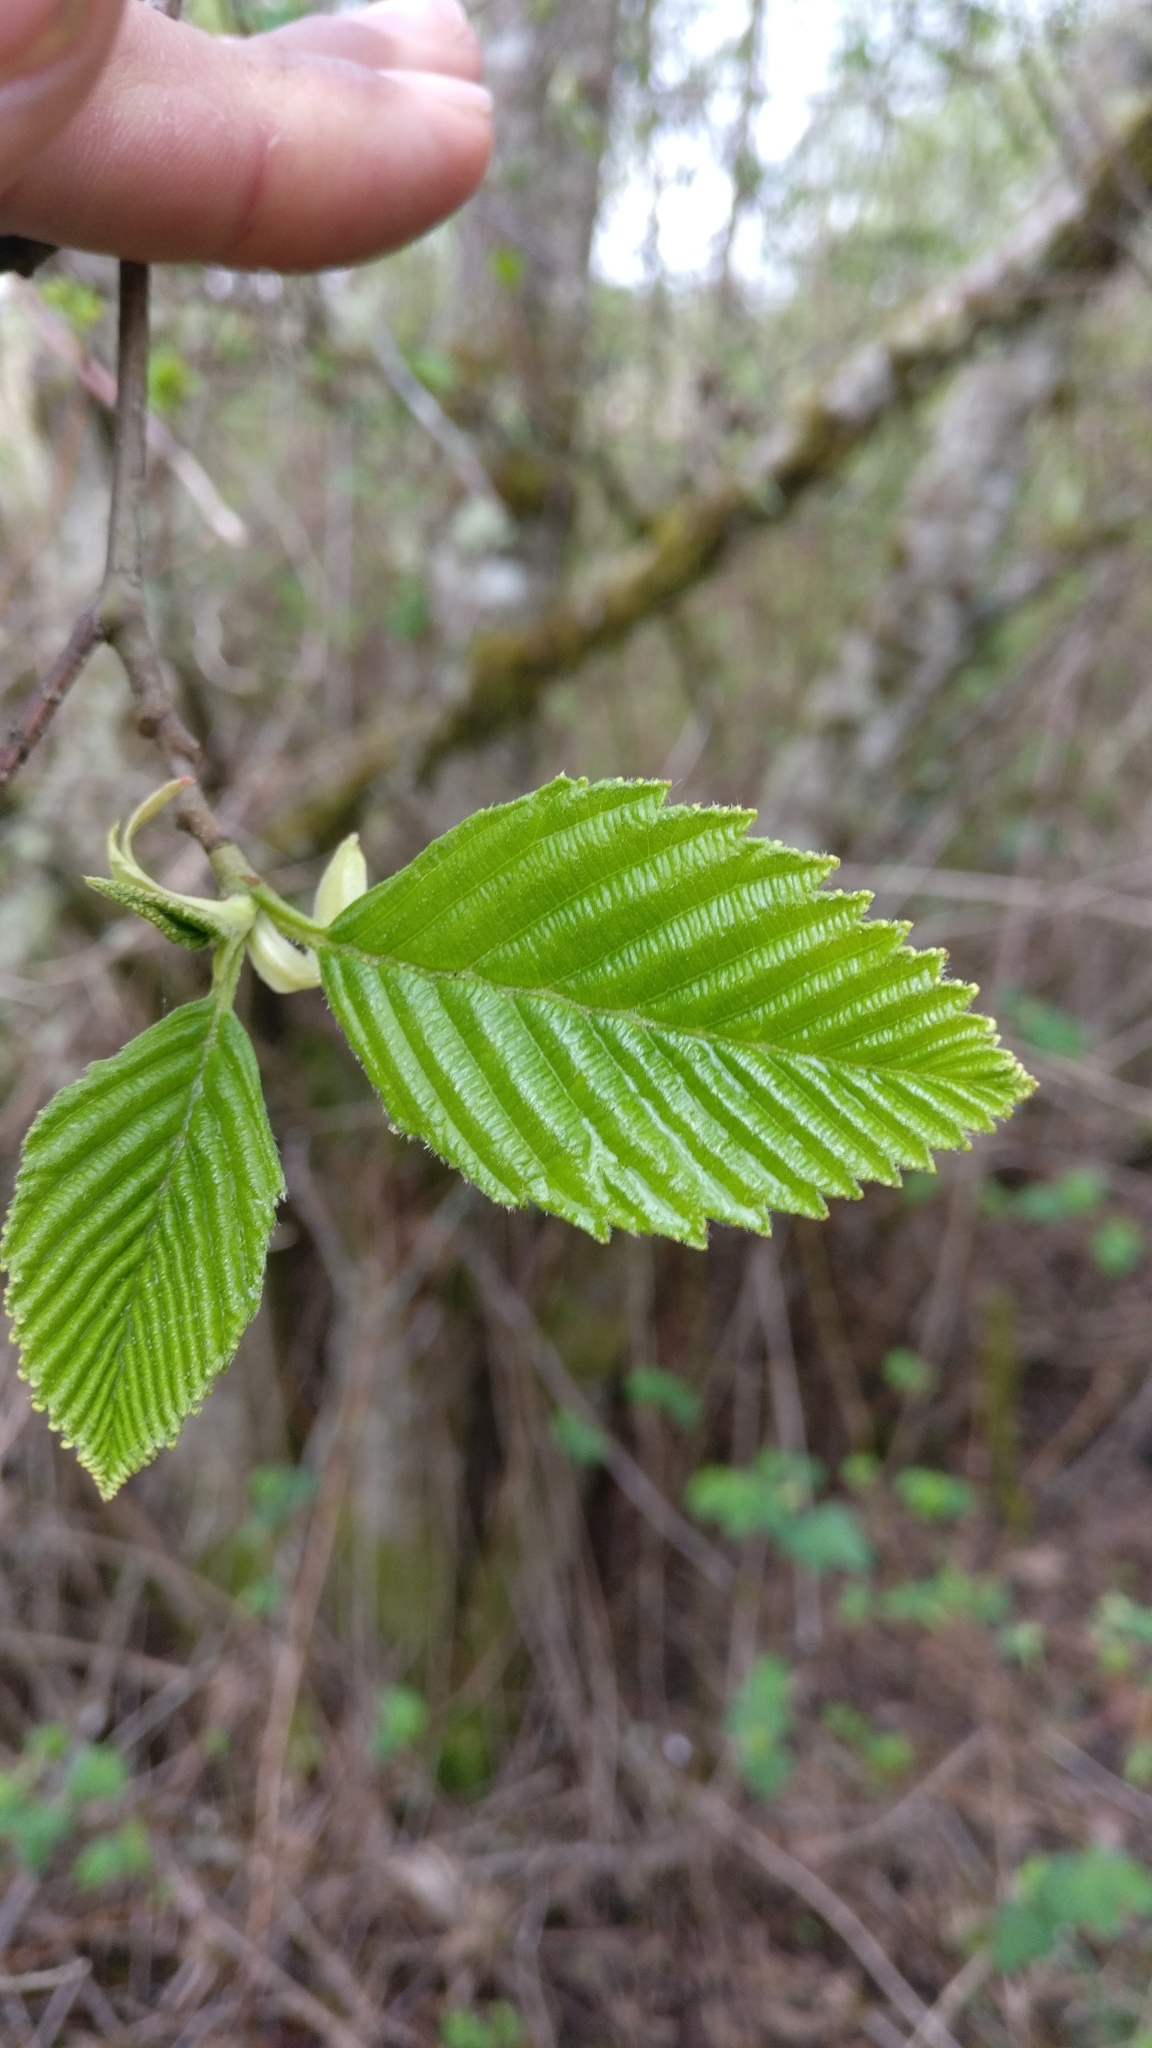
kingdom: Plantae
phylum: Tracheophyta
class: Magnoliopsida
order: Fagales
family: Betulaceae
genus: Alnus
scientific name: Alnus rubra
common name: Red alder
